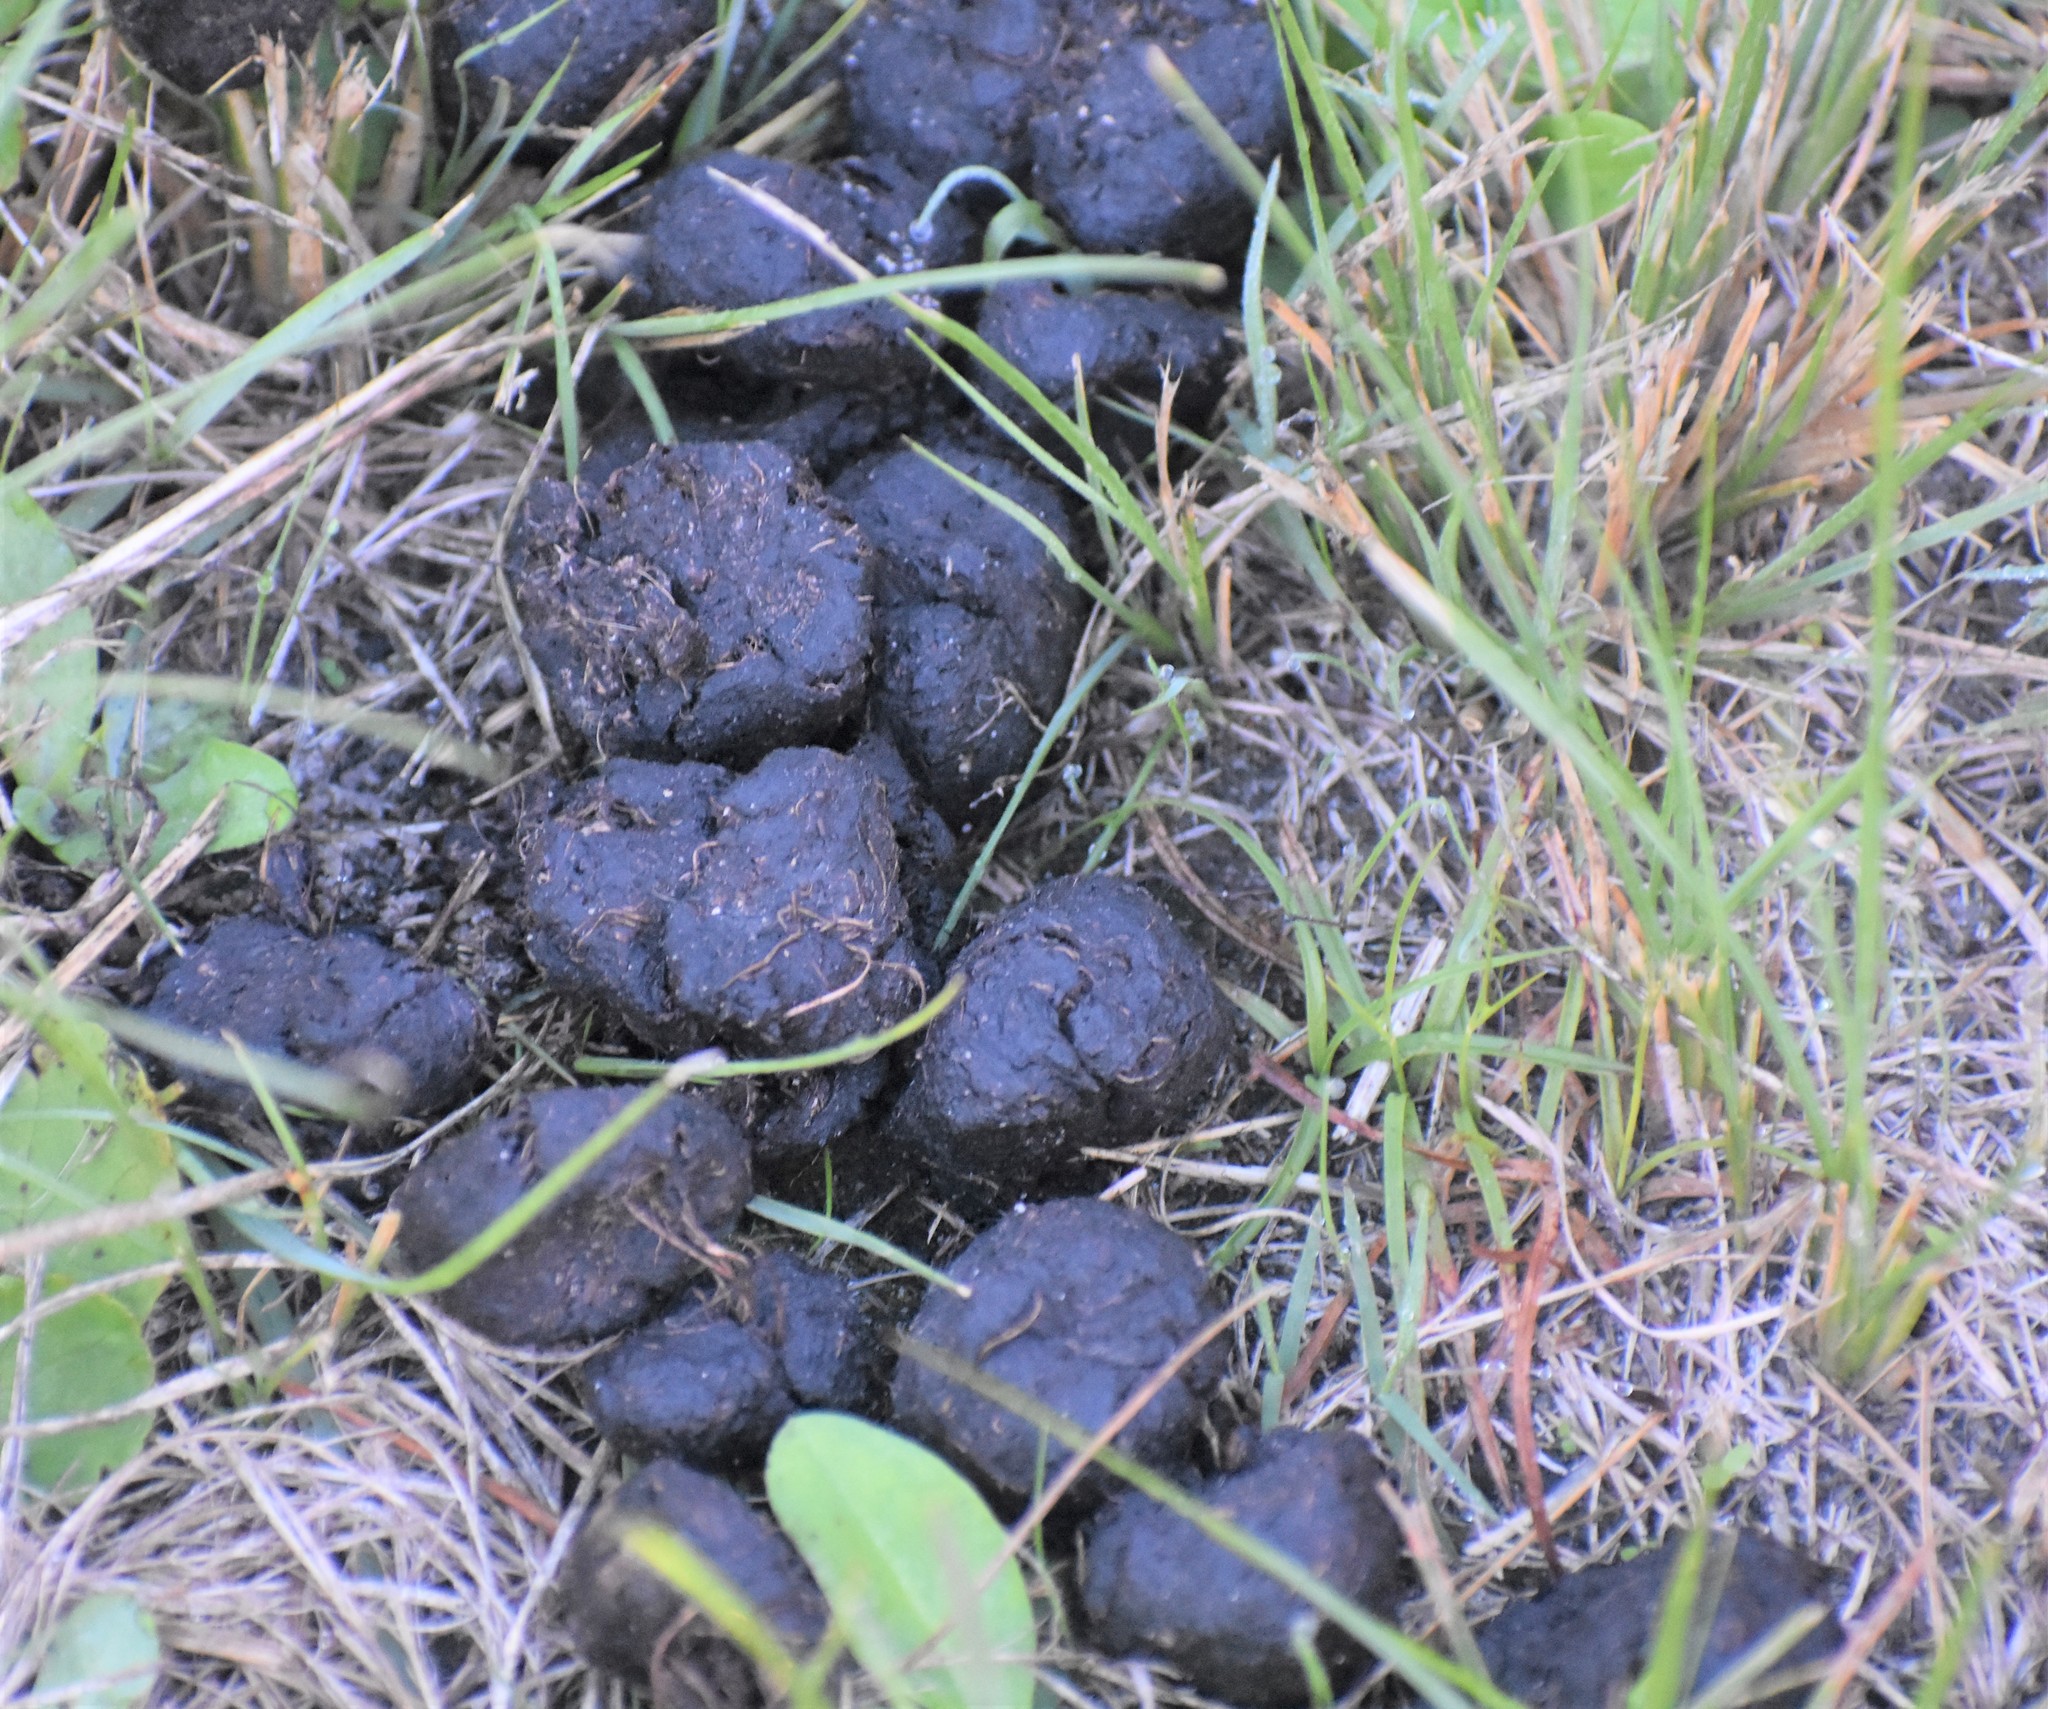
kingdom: Animalia
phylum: Chordata
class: Mammalia
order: Artiodactyla
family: Suidae
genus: Potamochoerus
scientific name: Potamochoerus larvatus
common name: Bushpig
